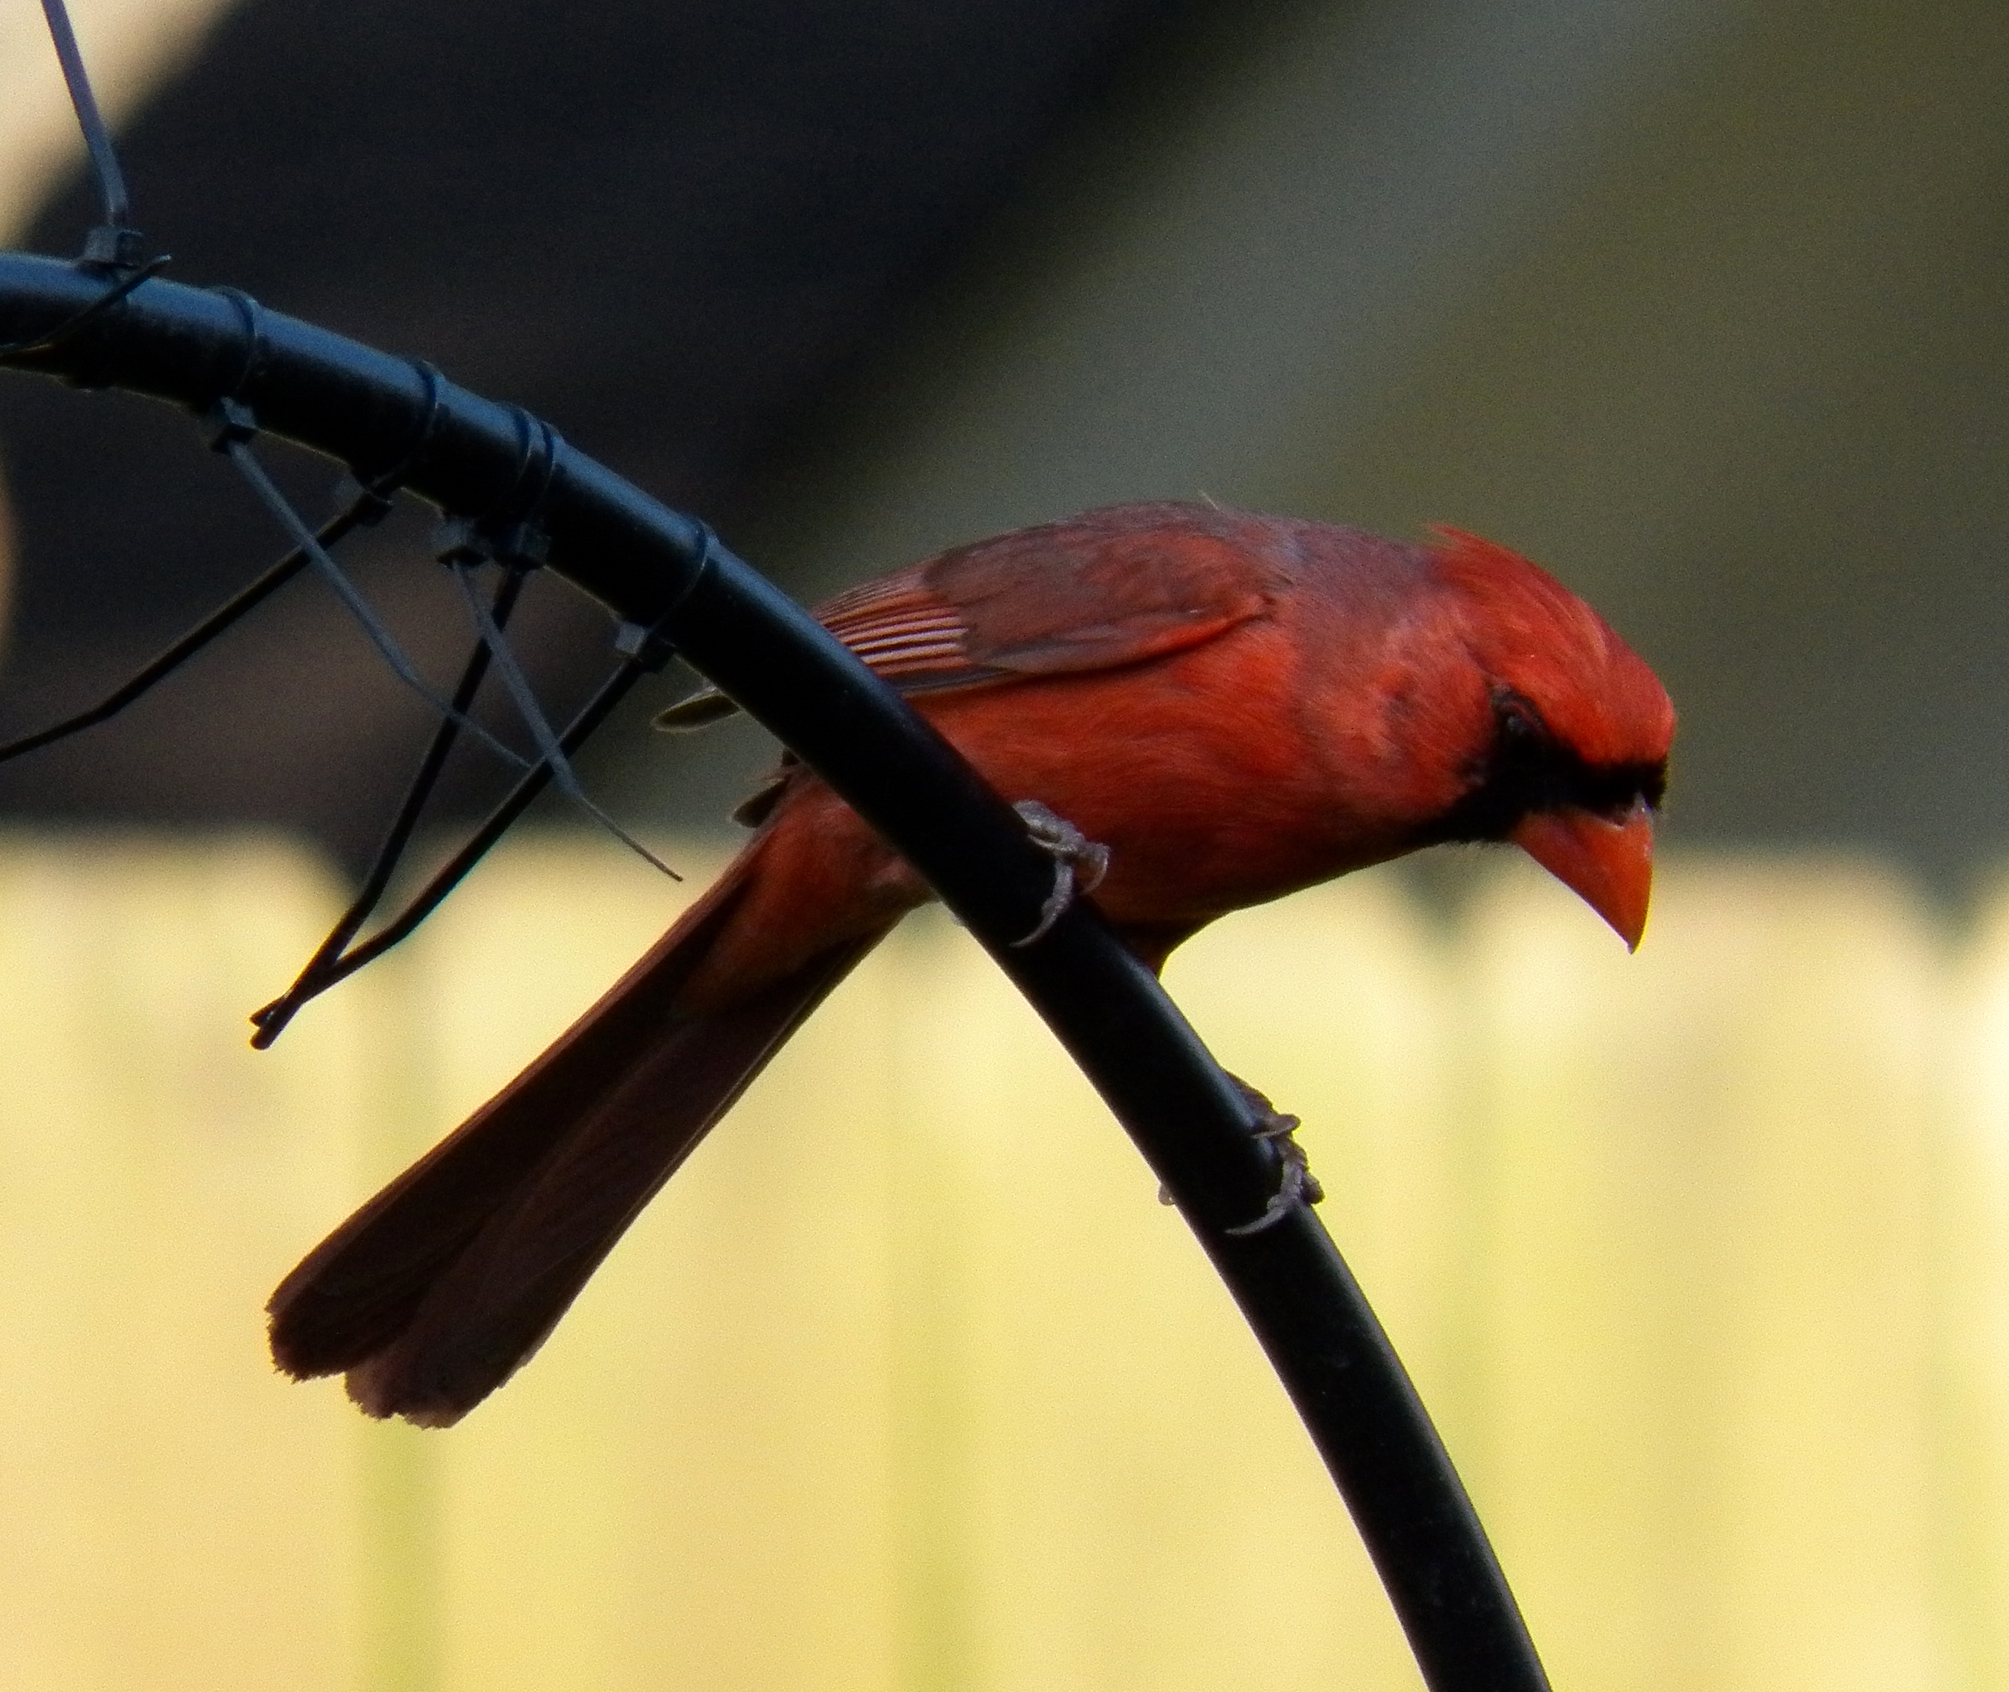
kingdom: Animalia
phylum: Chordata
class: Aves
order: Passeriformes
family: Cardinalidae
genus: Cardinalis
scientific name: Cardinalis cardinalis
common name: Northern cardinal
